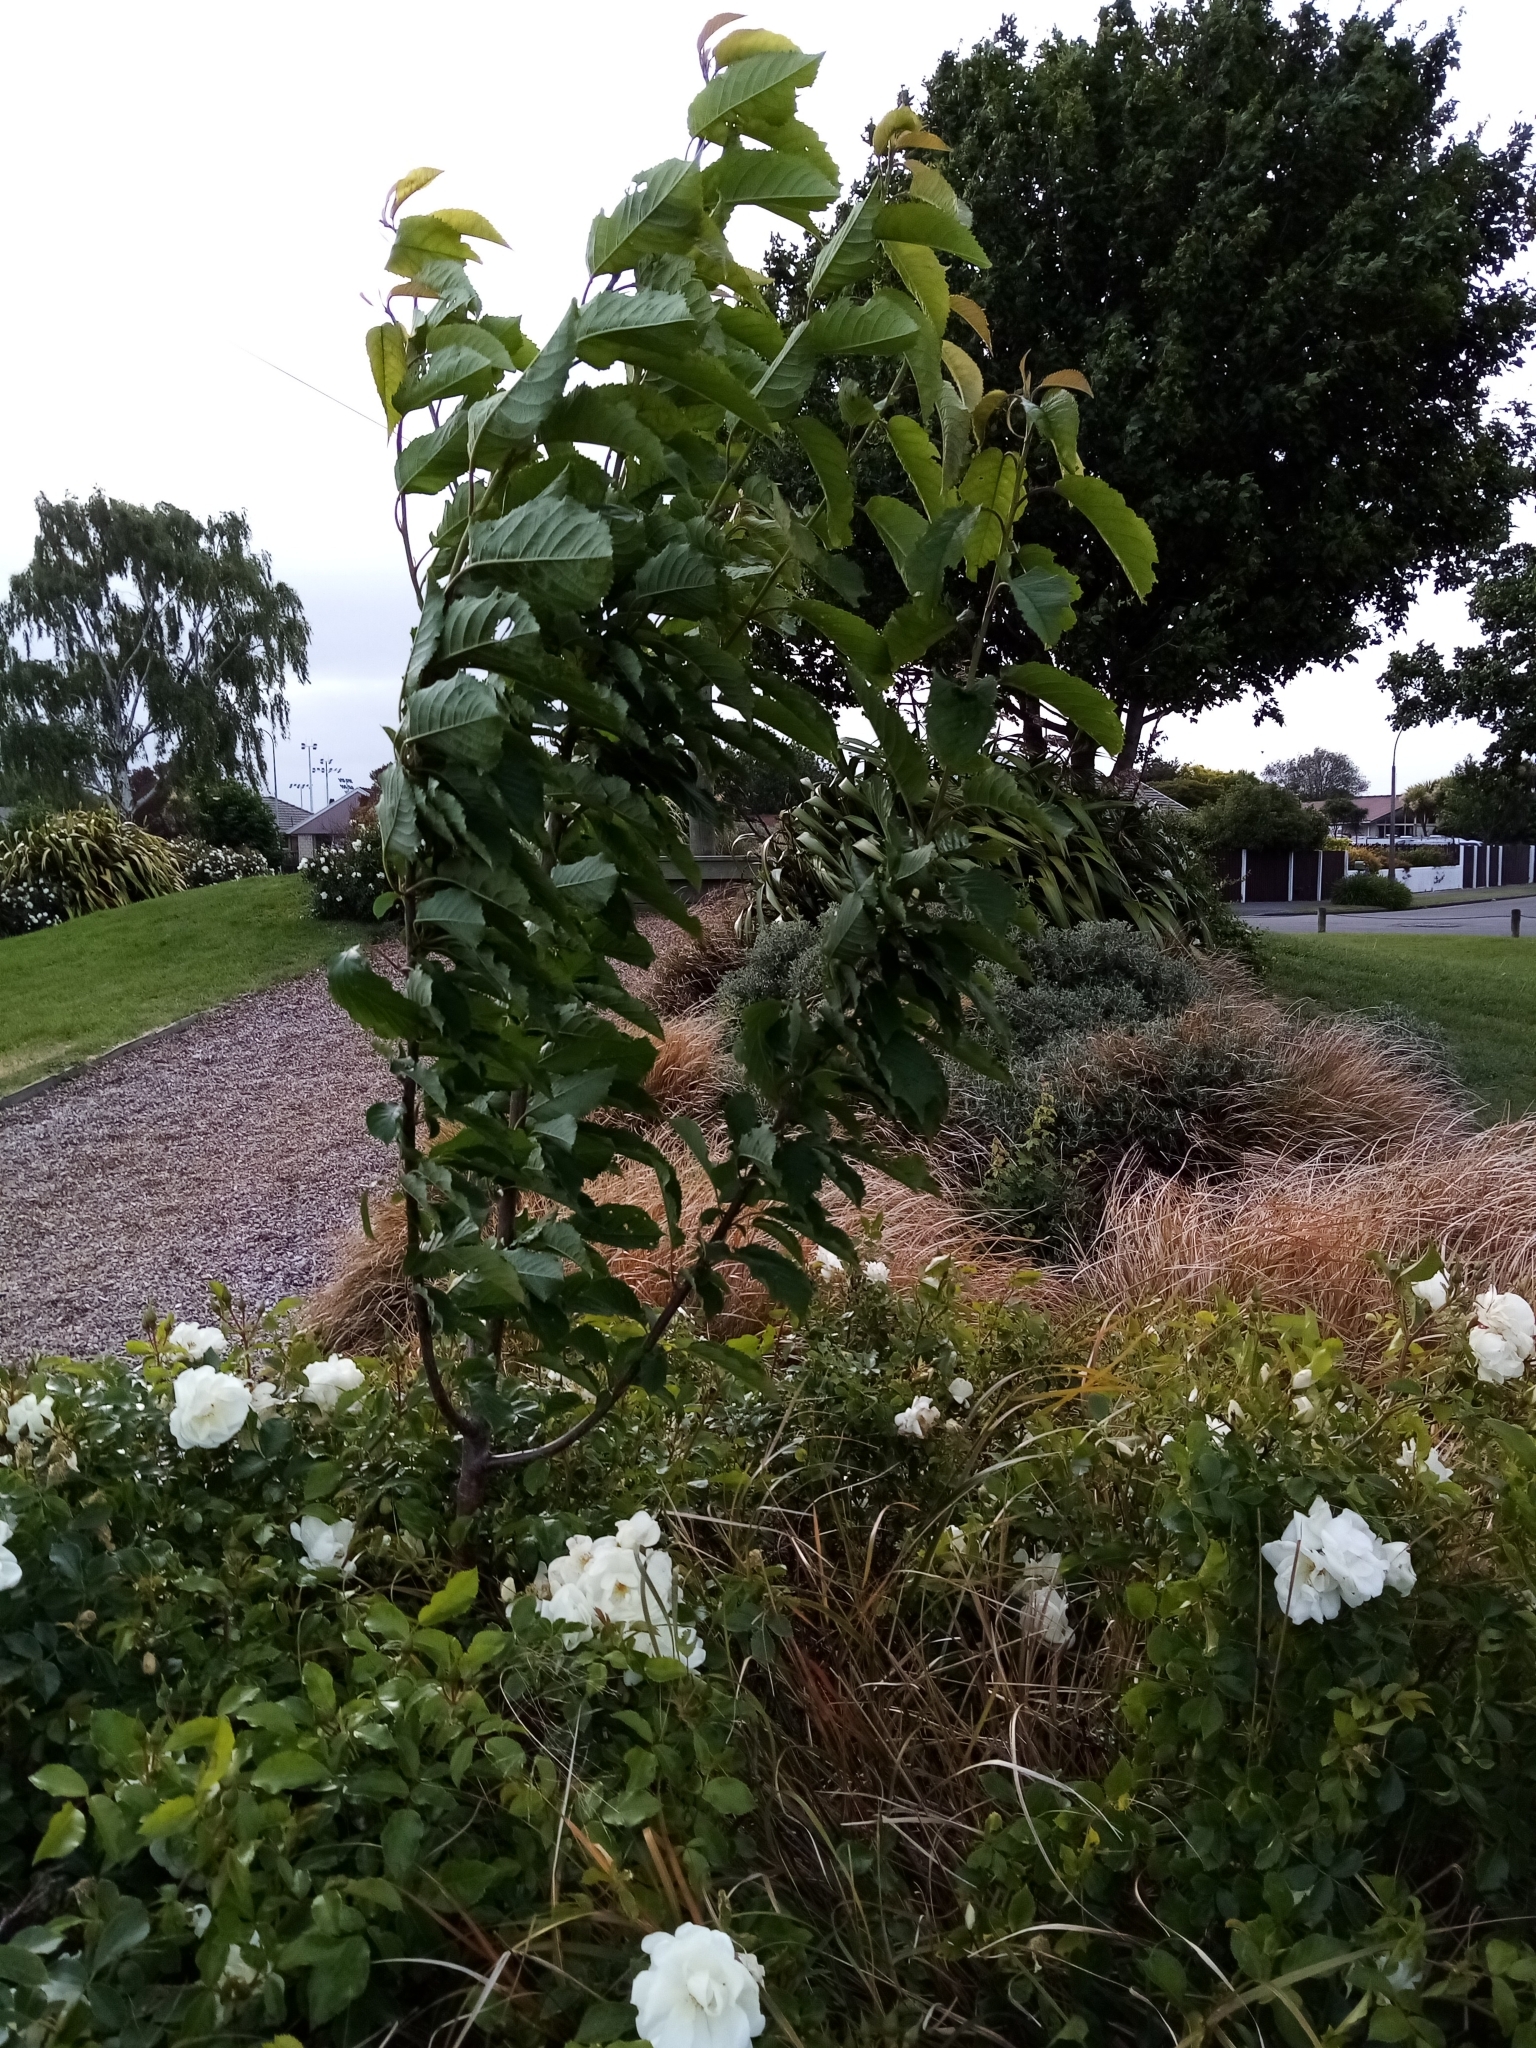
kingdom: Plantae
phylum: Tracheophyta
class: Magnoliopsida
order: Rosales
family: Rosaceae
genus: Prunus
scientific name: Prunus avium
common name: Sweet cherry
